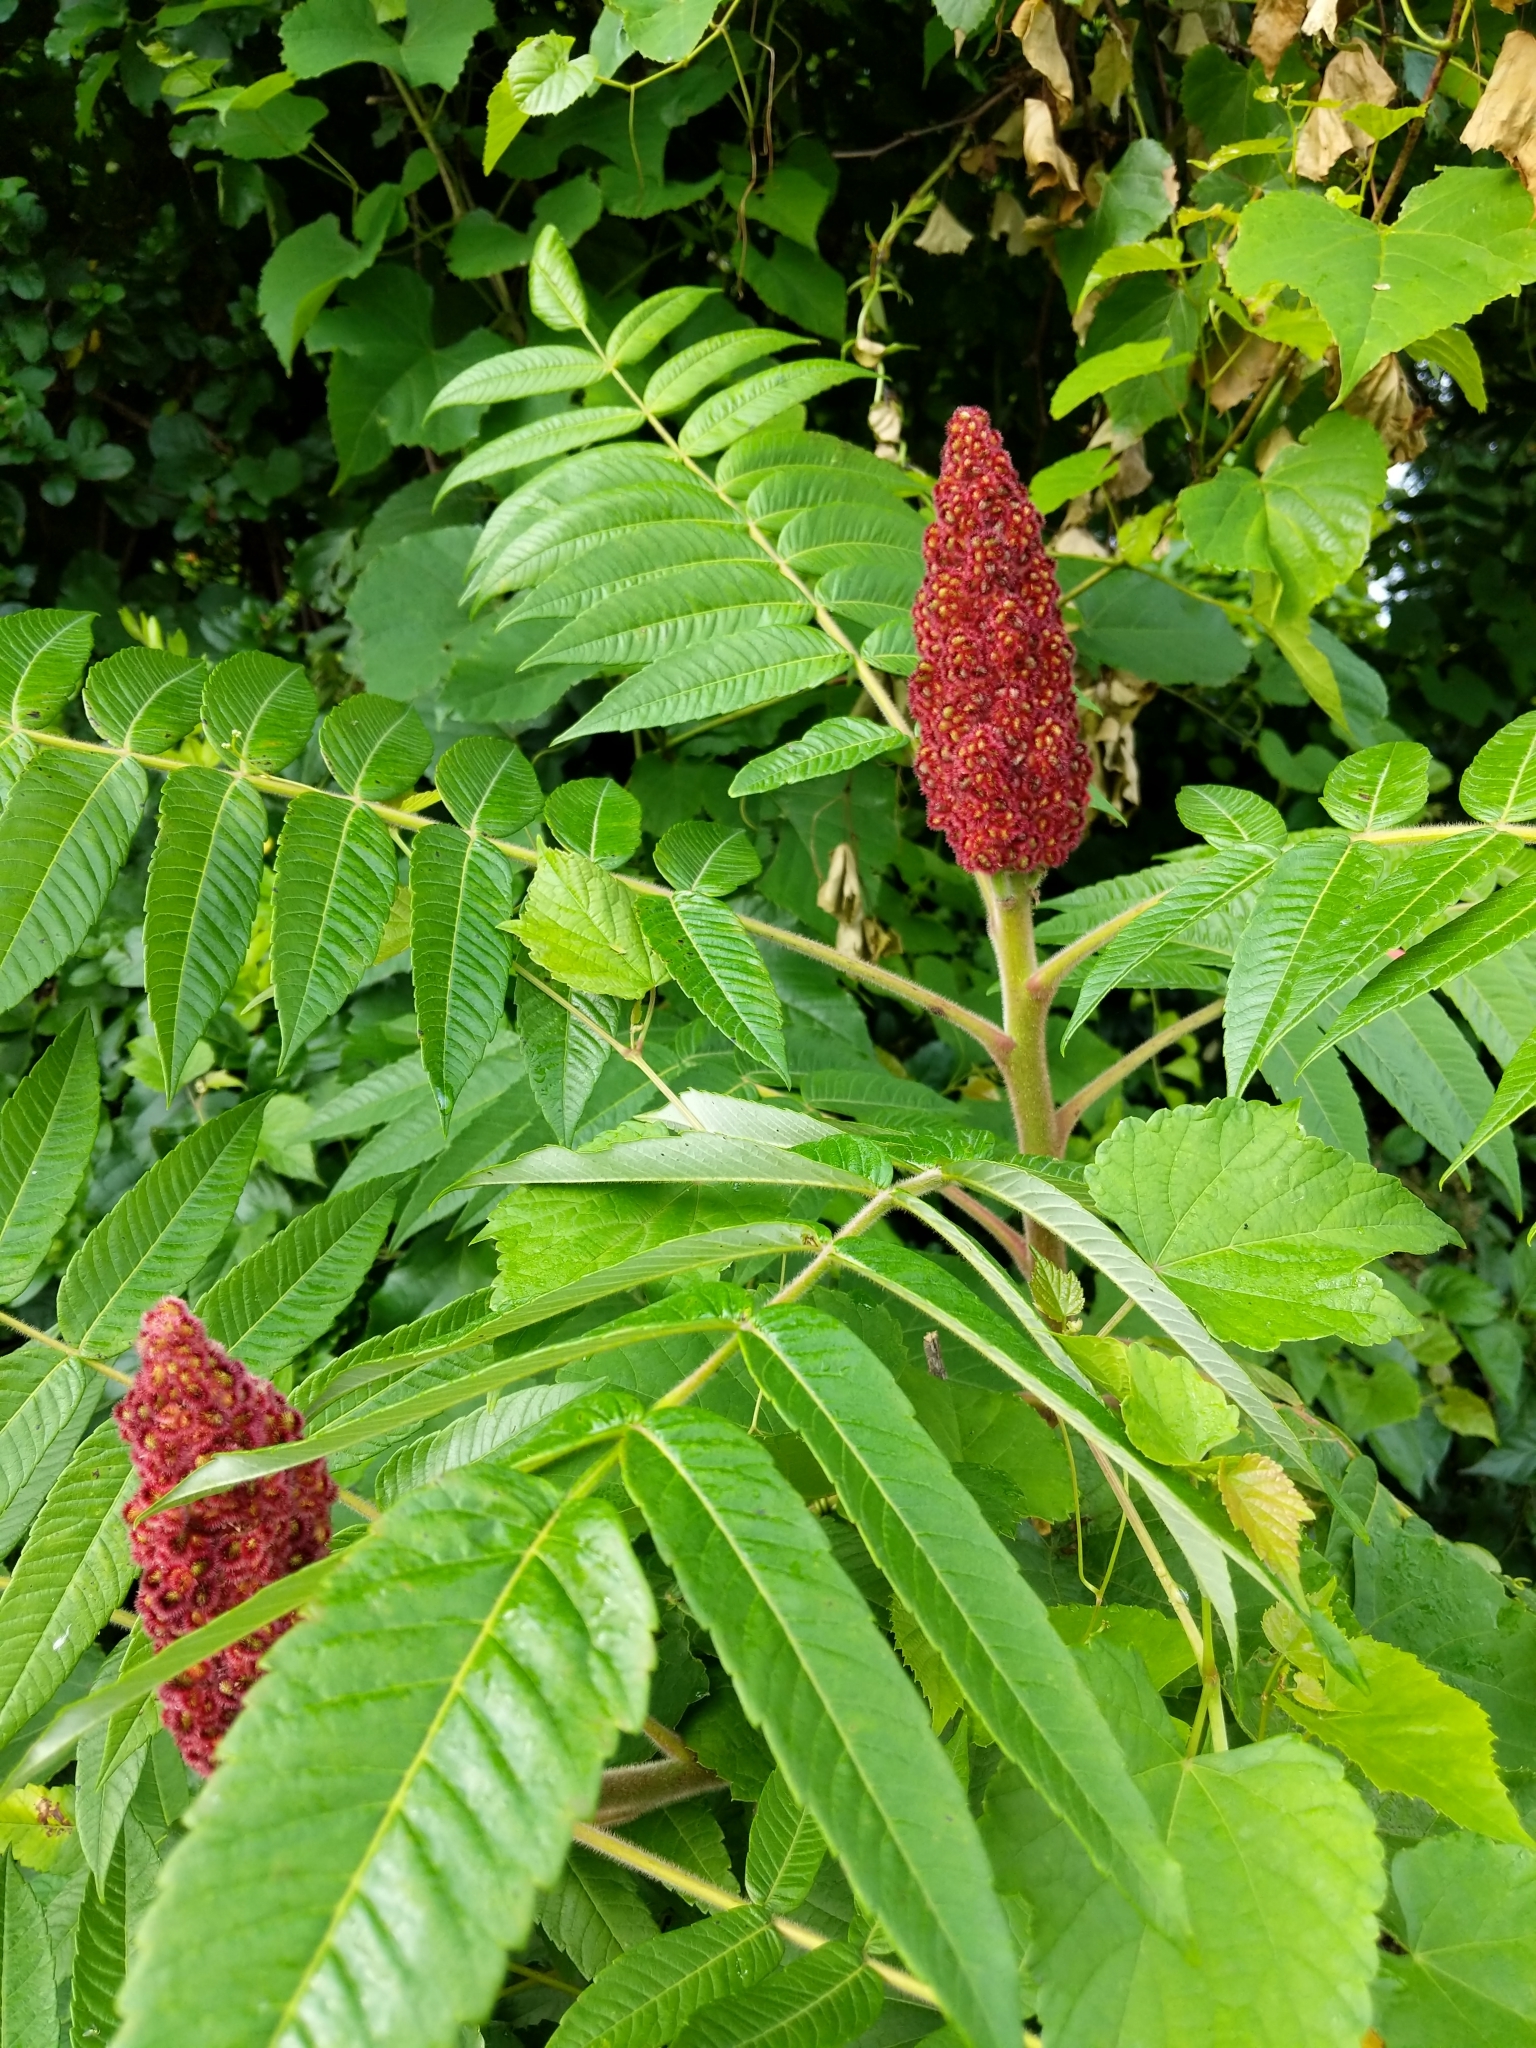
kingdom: Plantae
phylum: Tracheophyta
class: Magnoliopsida
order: Sapindales
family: Anacardiaceae
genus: Rhus
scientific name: Rhus typhina
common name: Staghorn sumac
